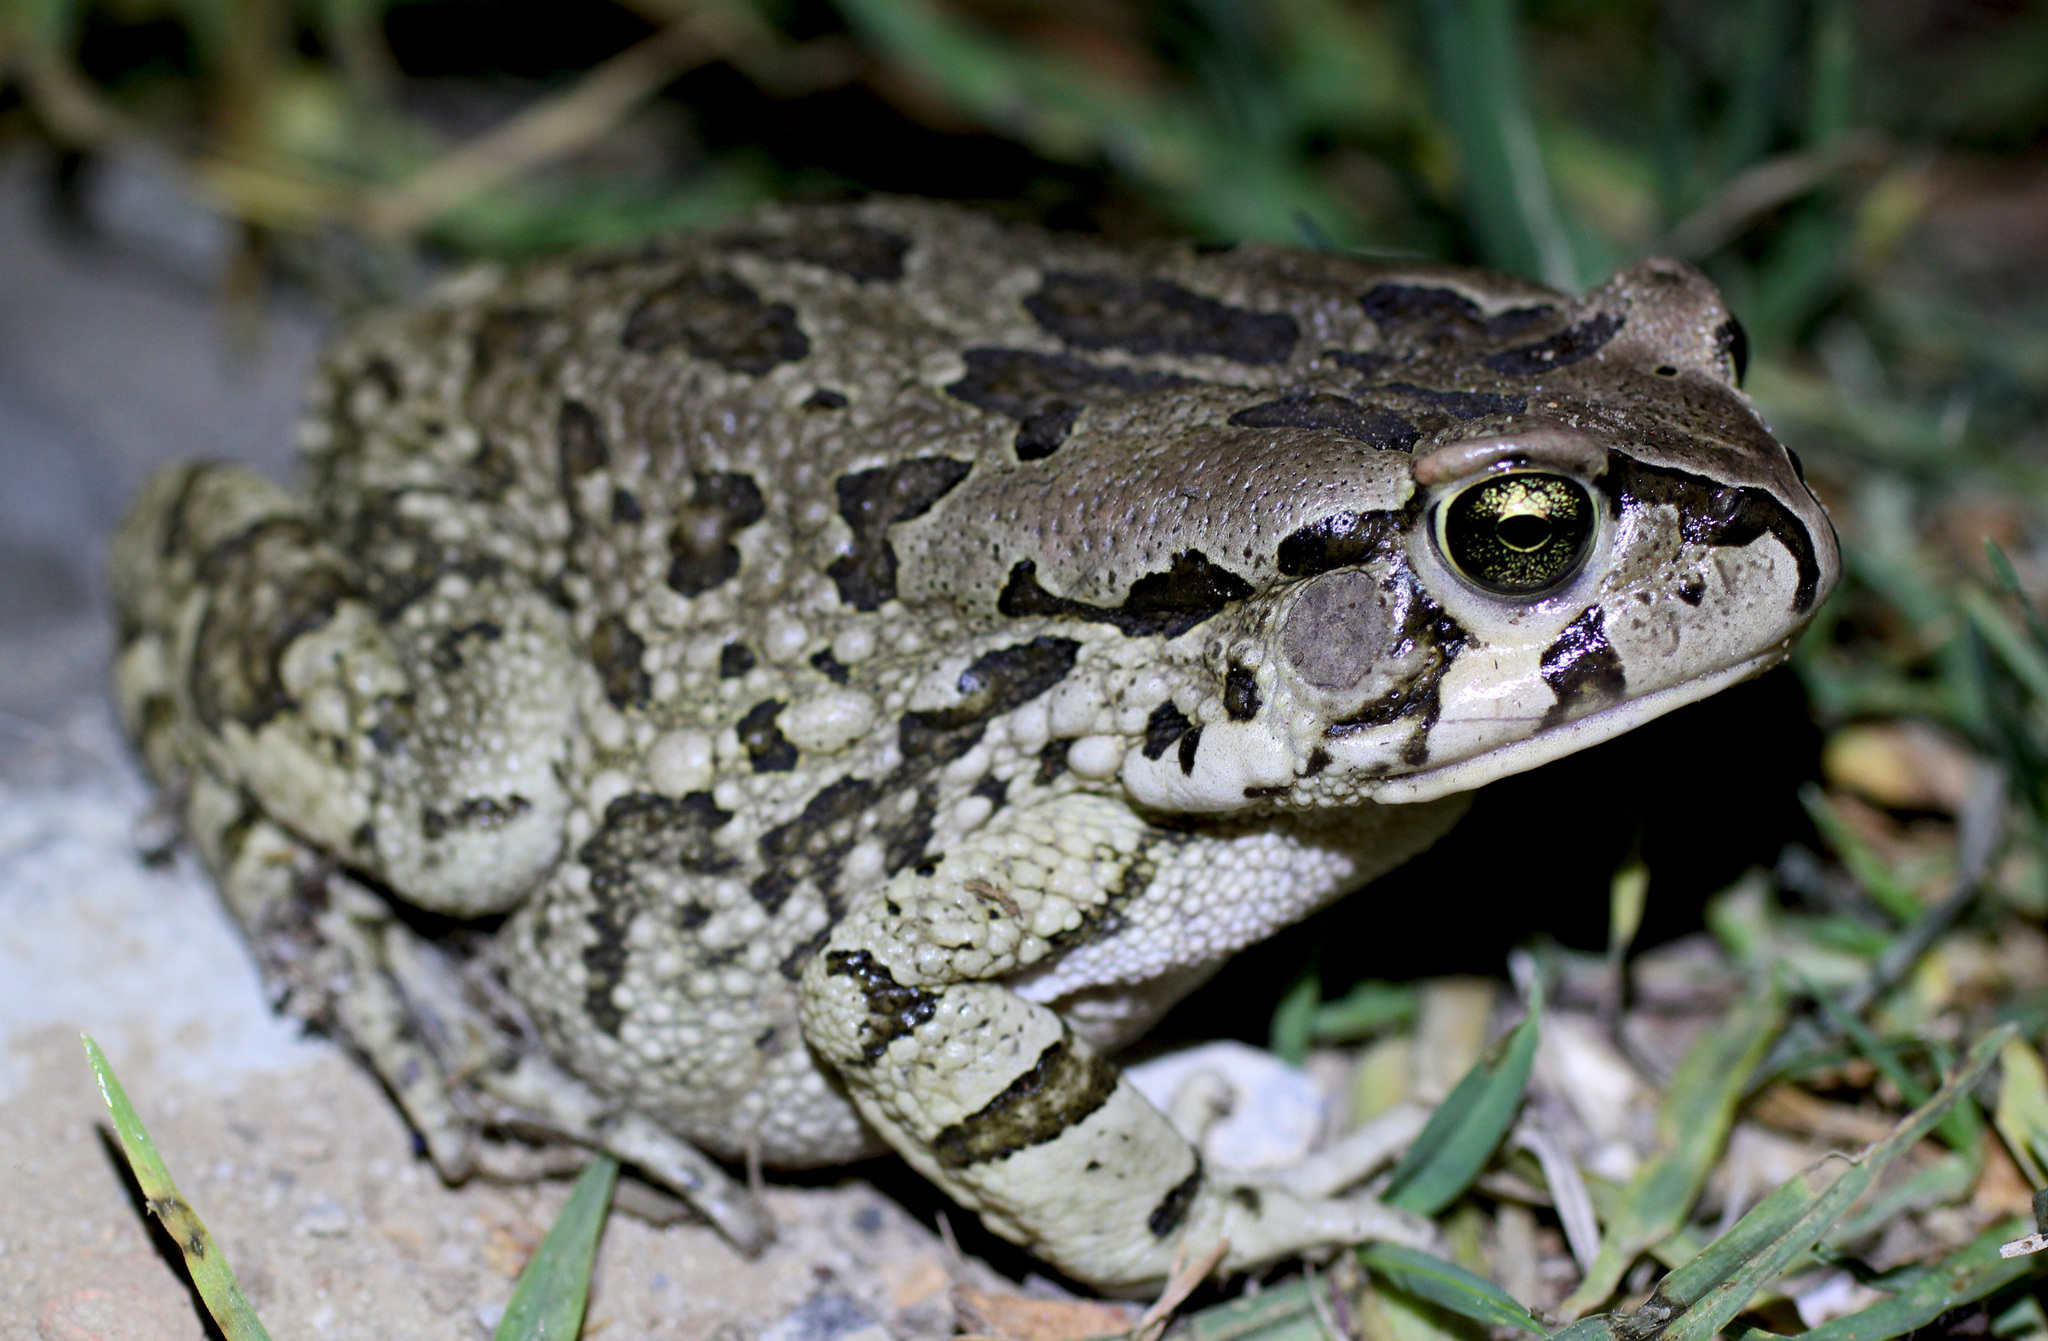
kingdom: Animalia
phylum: Chordata
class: Amphibia
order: Anura
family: Bufonidae
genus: Sclerophrys
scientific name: Sclerophrys capensis
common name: Ranger’s toad
